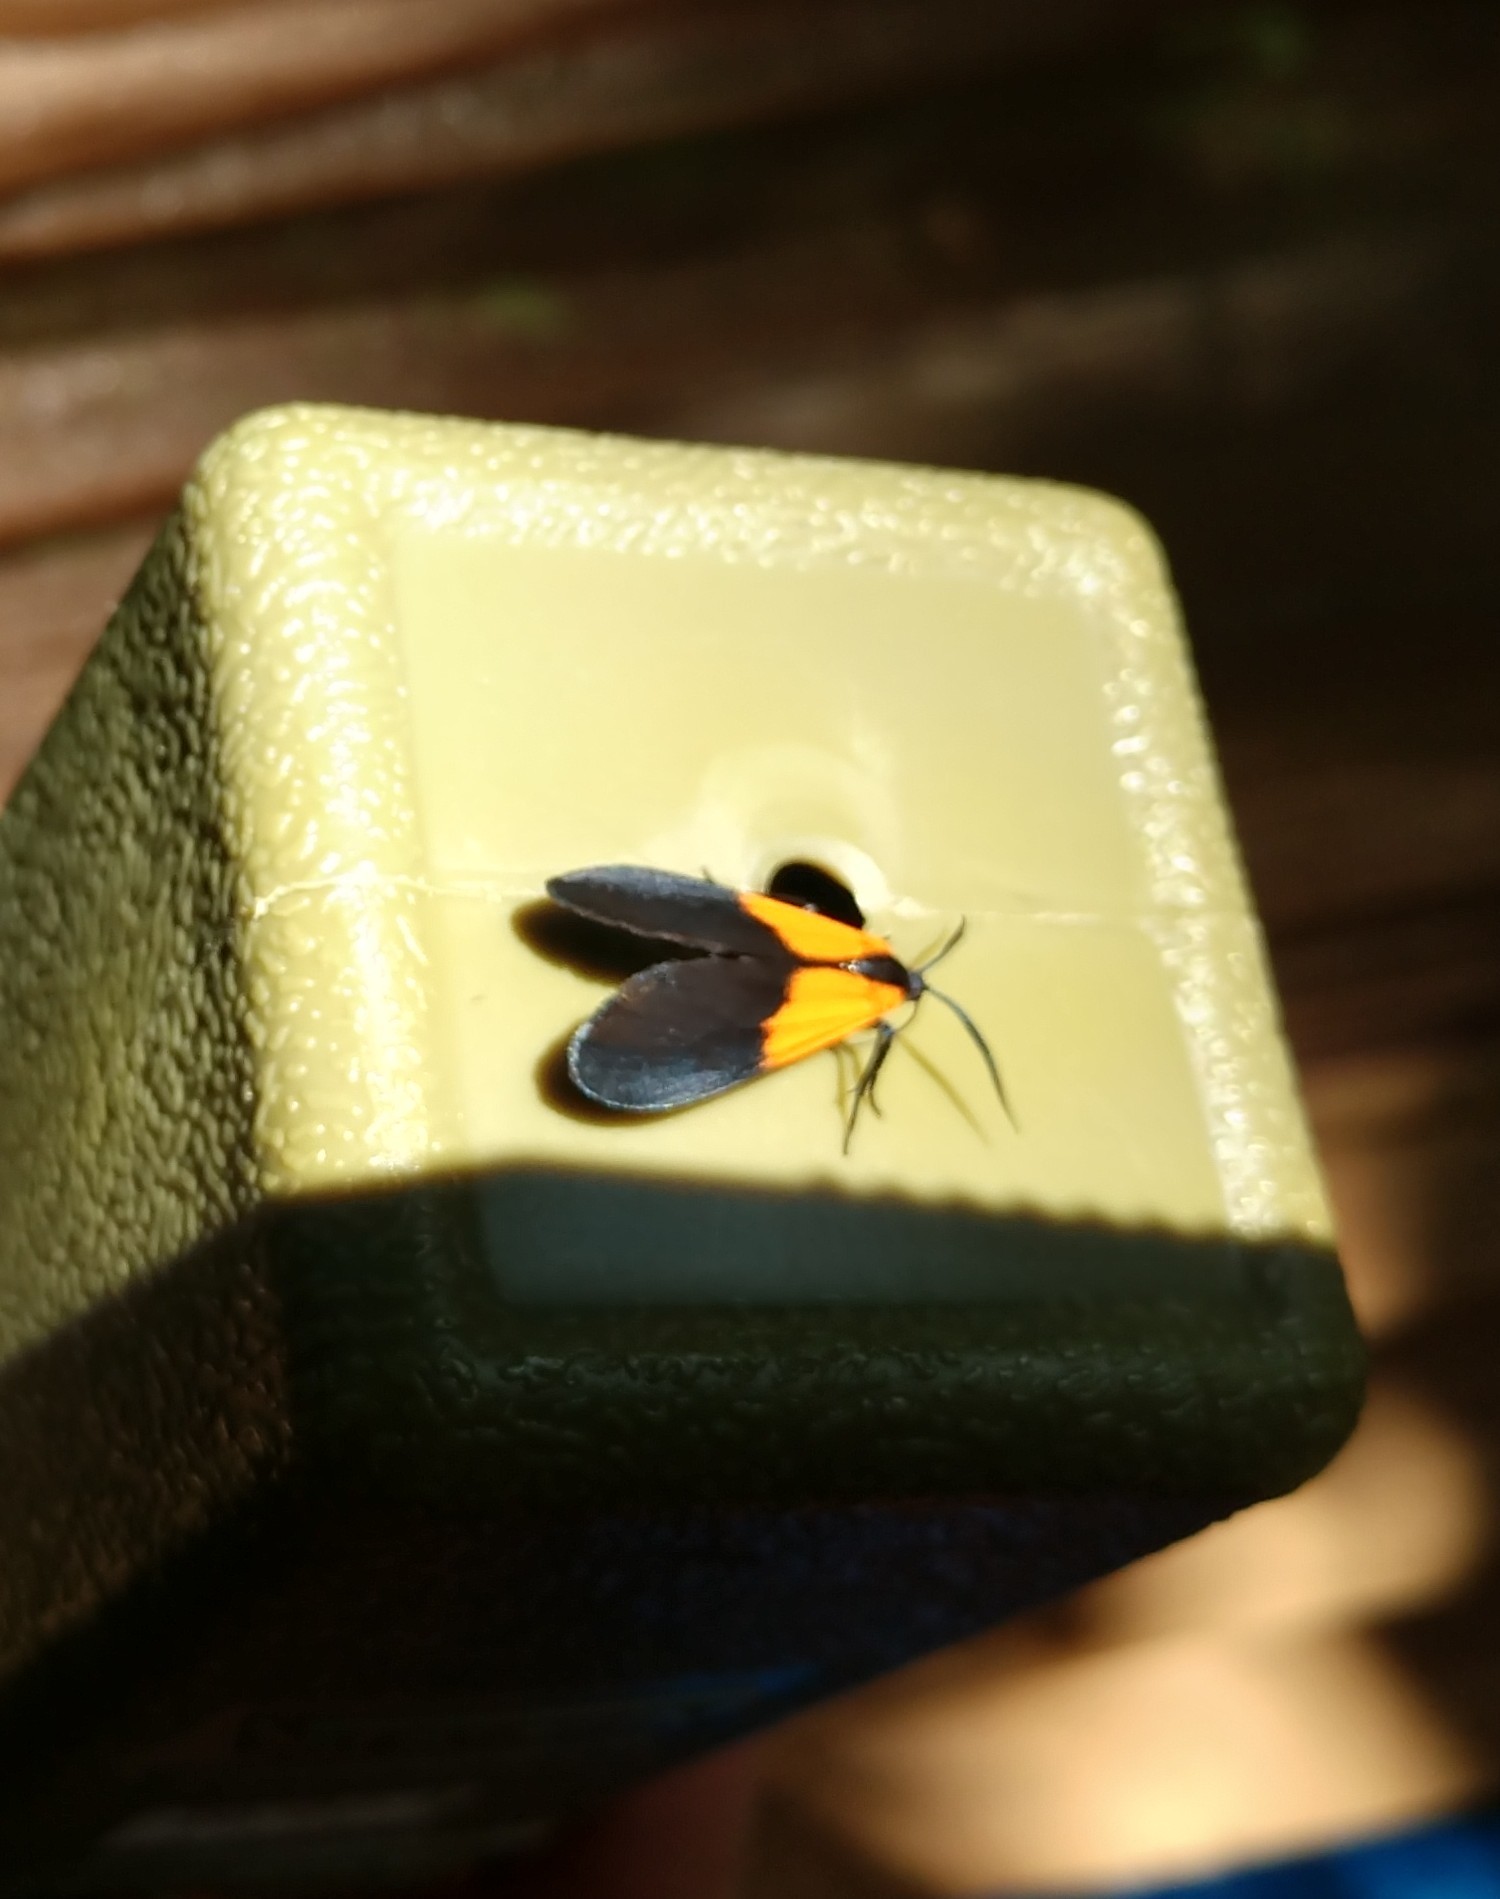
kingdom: Animalia
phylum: Arthropoda
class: Insecta
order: Lepidoptera
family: Erebidae
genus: Lycomorpha
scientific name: Lycomorpha pholus
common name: Black-and-yellow lichen moth
